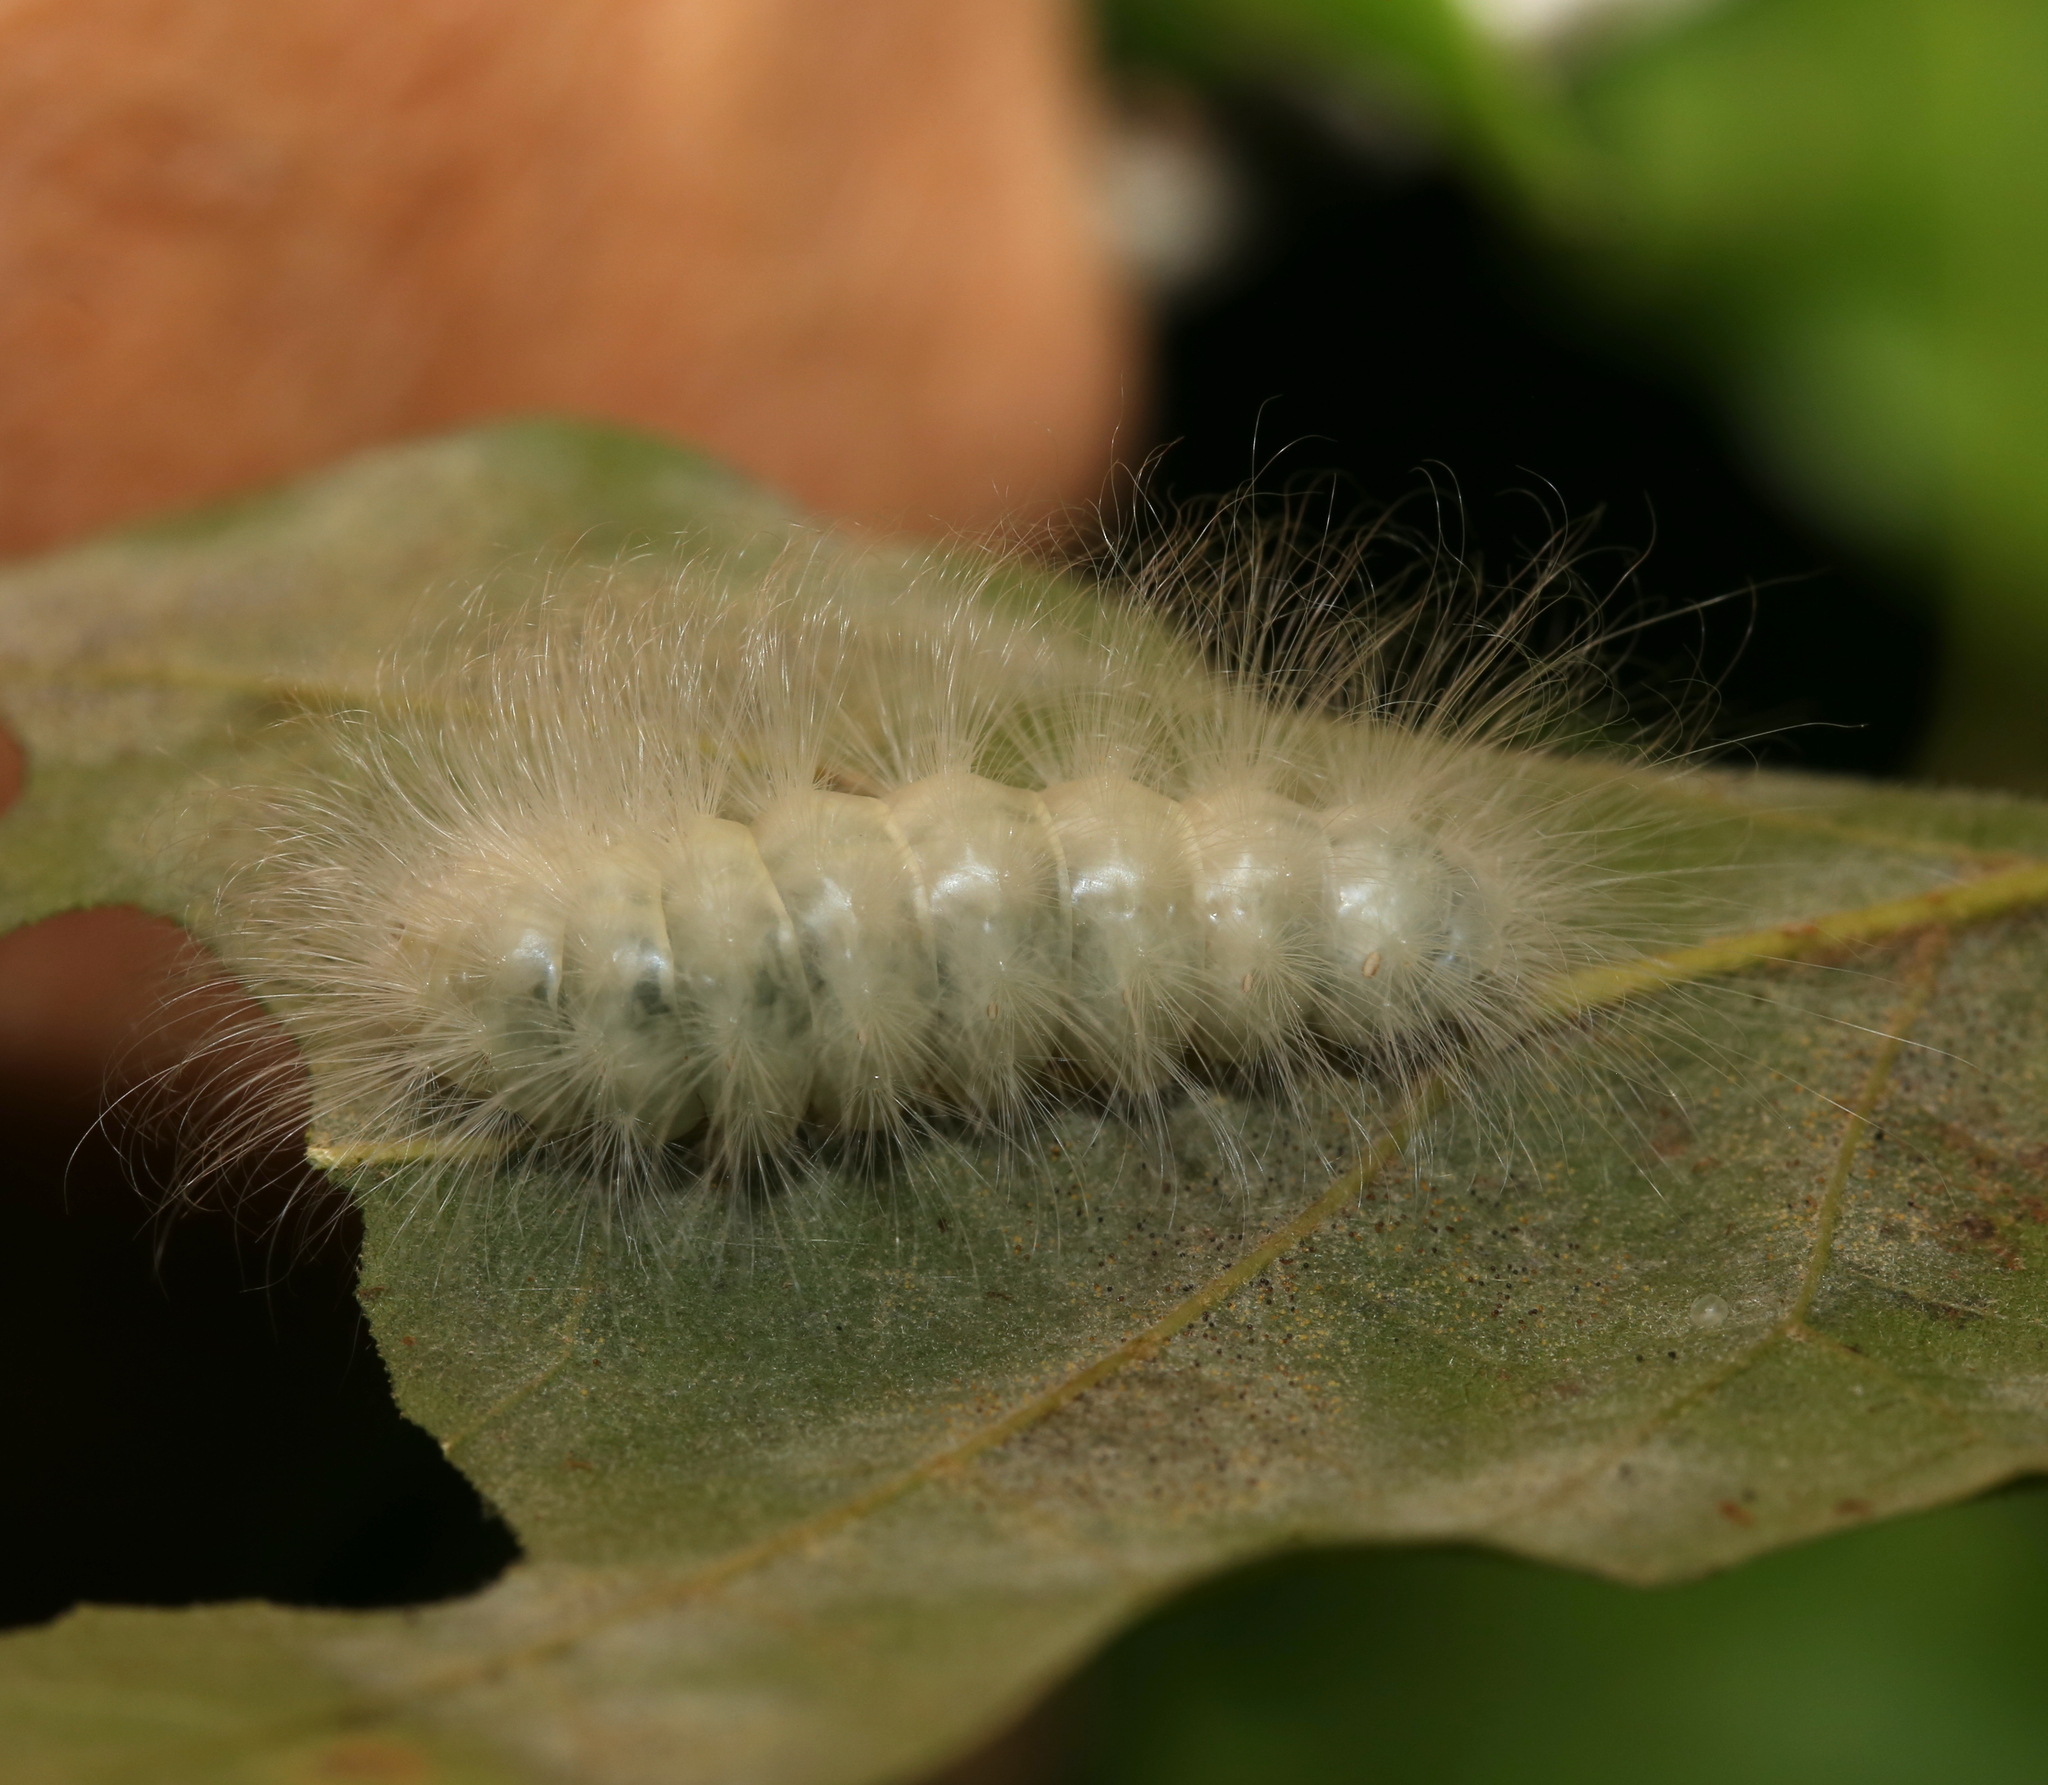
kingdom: Animalia
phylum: Arthropoda
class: Insecta
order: Lepidoptera
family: Noctuidae
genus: Charadra
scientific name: Charadra deridens
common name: Marbled tuffet
